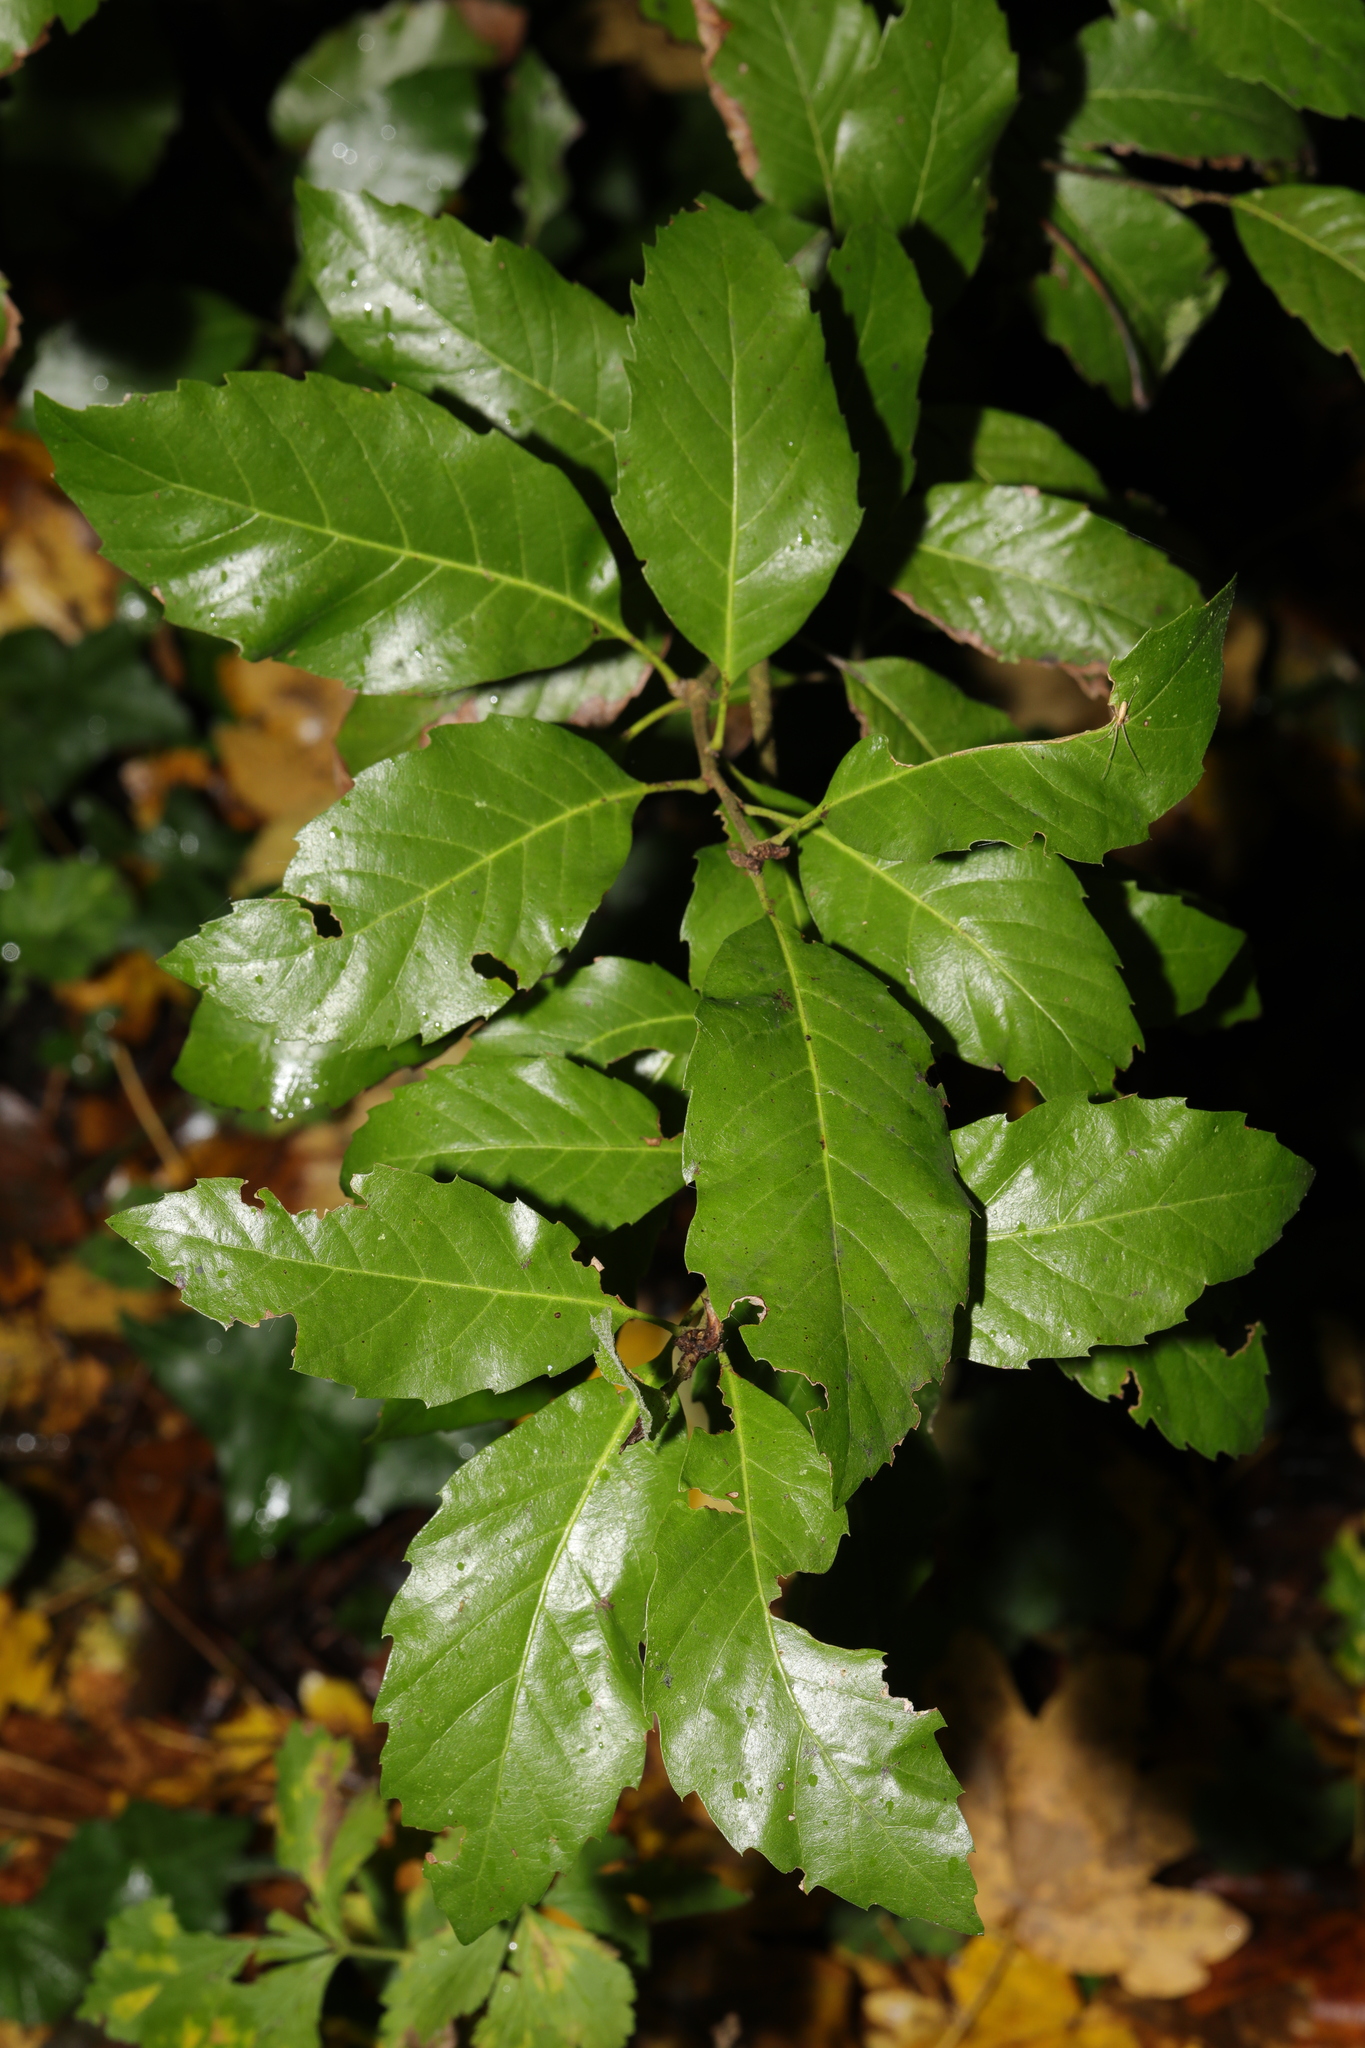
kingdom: Plantae
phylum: Tracheophyta
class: Magnoliopsida
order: Fagales
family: Fagaceae
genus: Quercus
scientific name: Quercus ilex
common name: Evergreen oak
